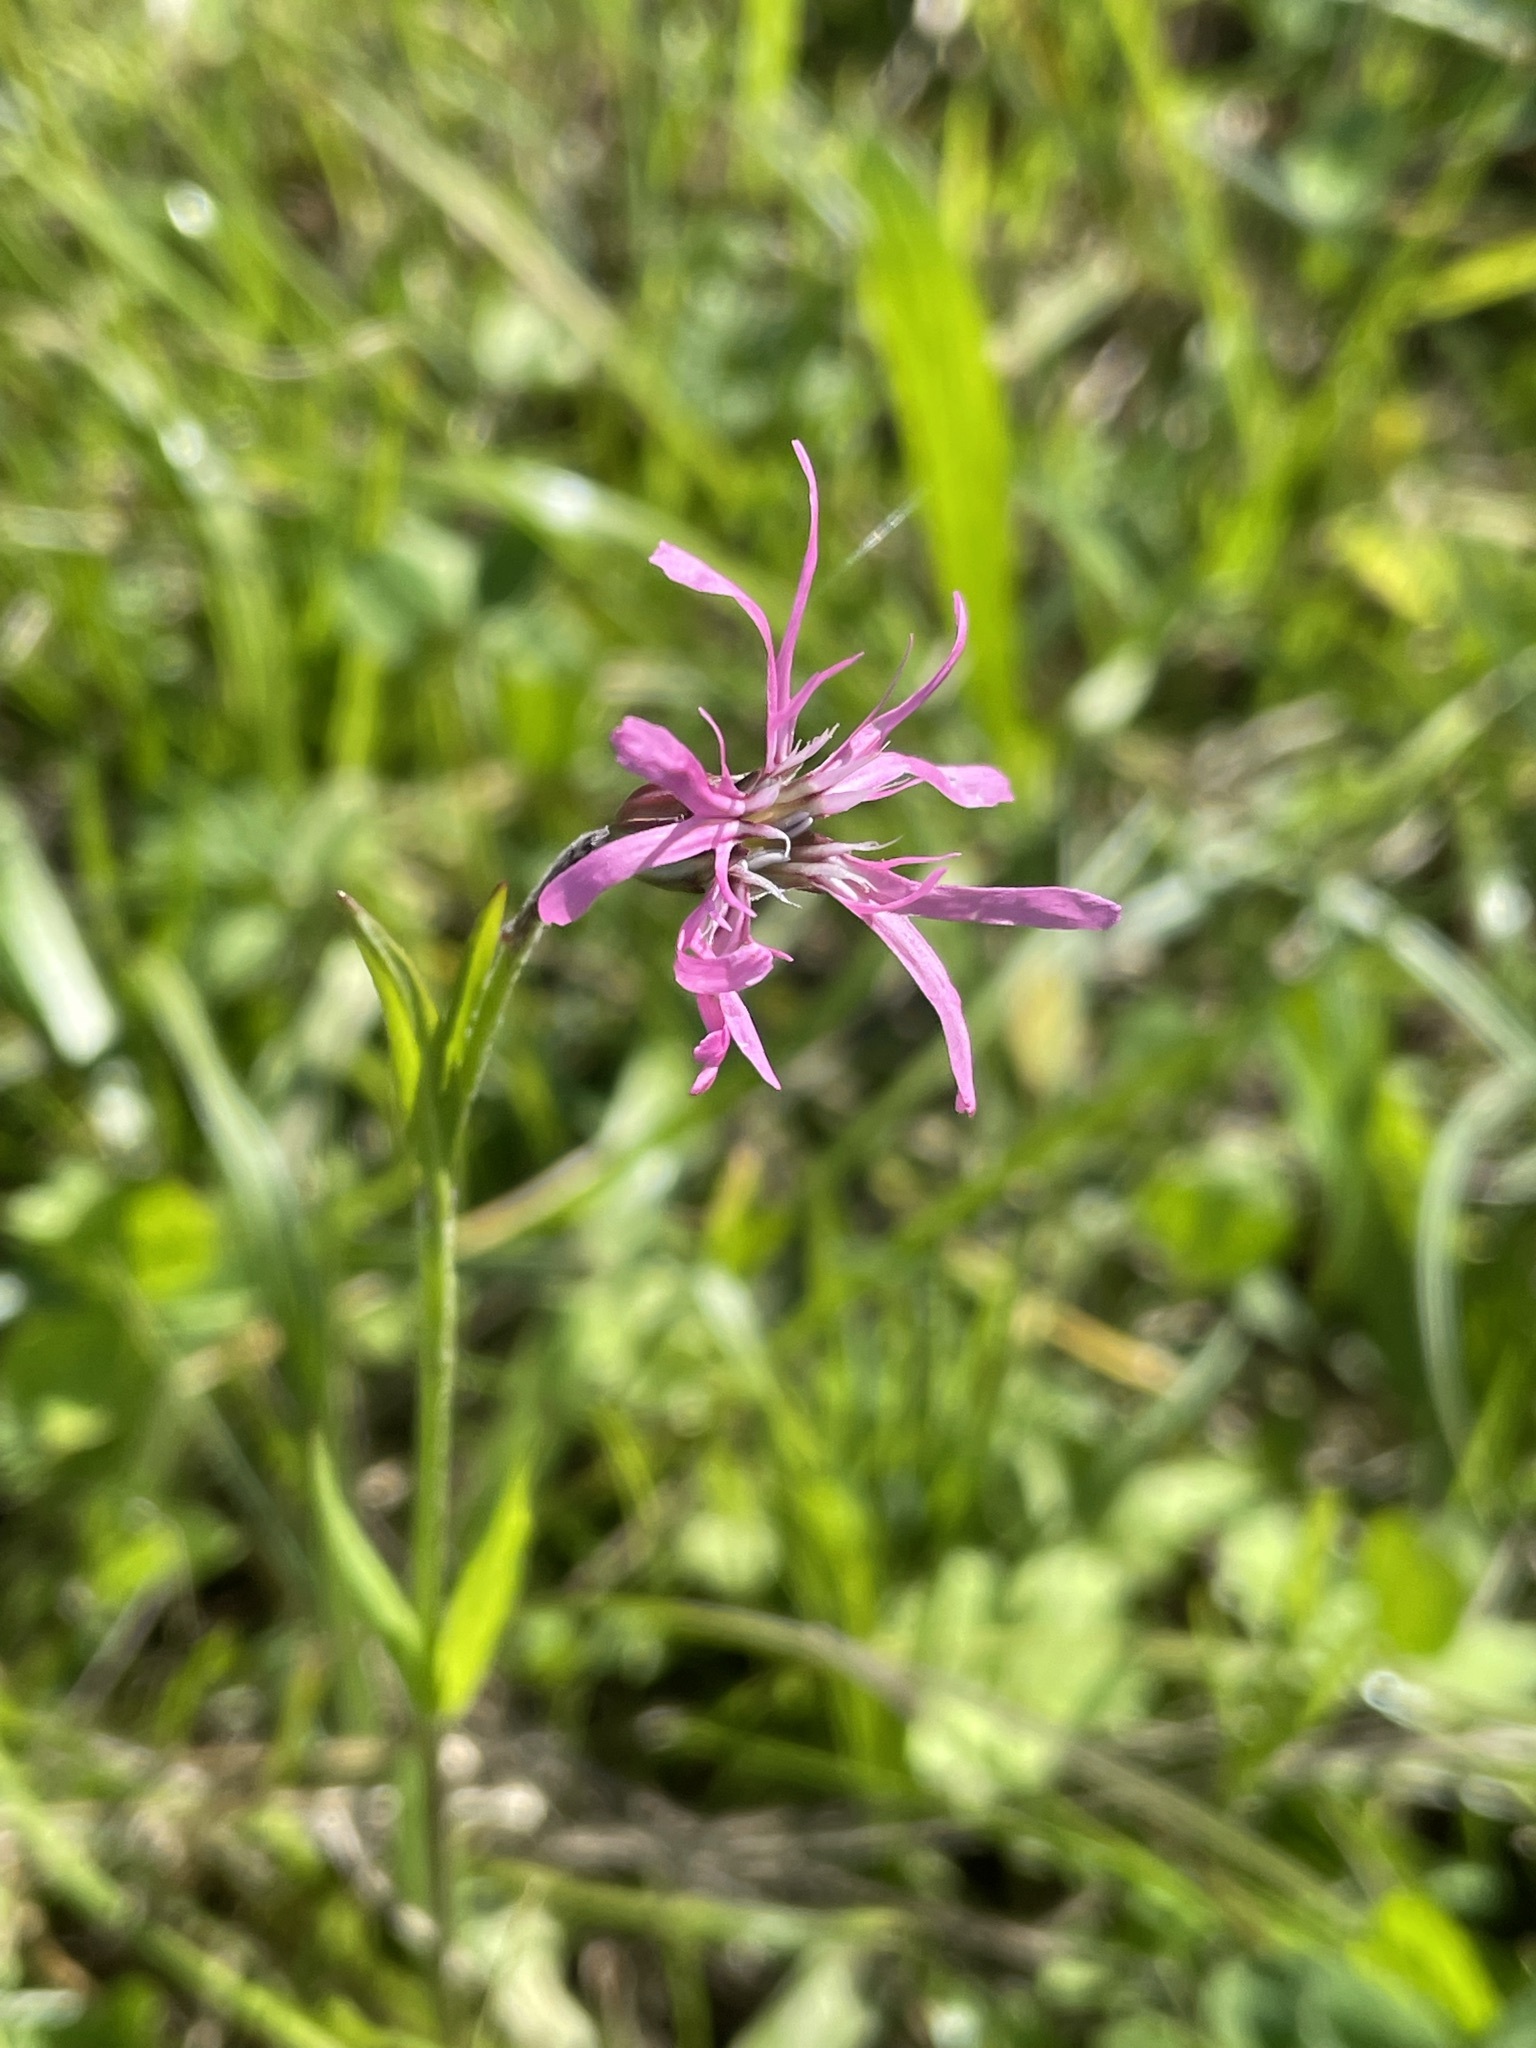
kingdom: Plantae
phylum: Tracheophyta
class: Magnoliopsida
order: Caryophyllales
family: Caryophyllaceae
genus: Silene
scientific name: Silene flos-cuculi
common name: Ragged-robin
